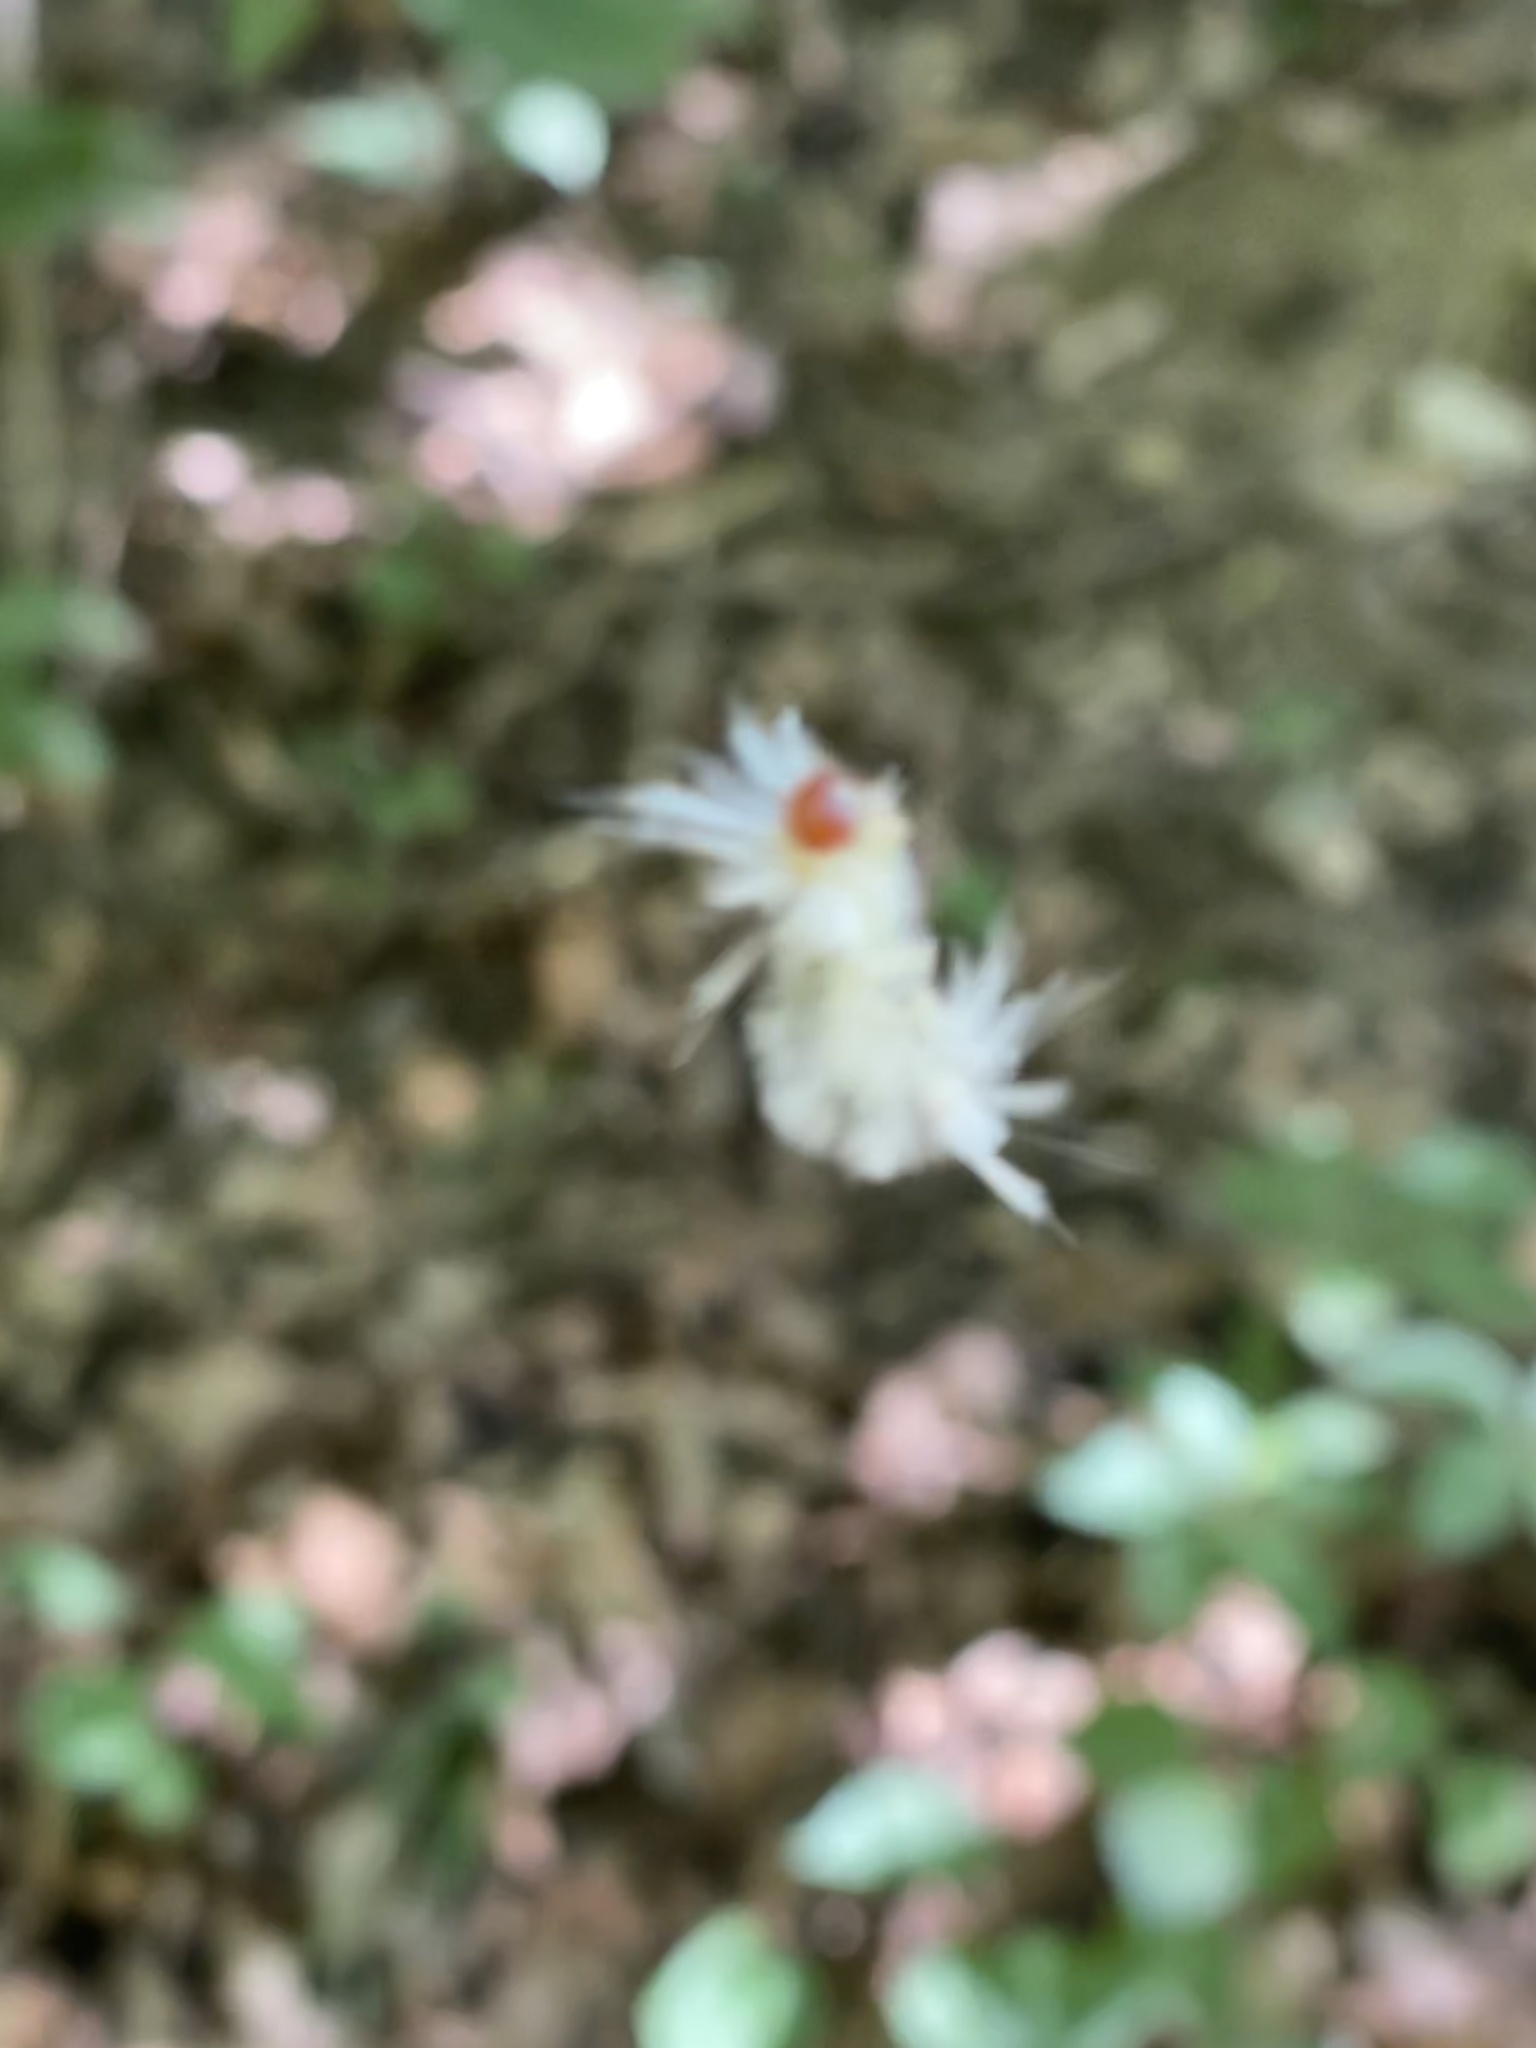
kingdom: Animalia
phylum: Arthropoda
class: Insecta
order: Lepidoptera
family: Erebidae
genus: Halysidota
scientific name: Halysidota tessellaris
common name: Banded tussock moth
